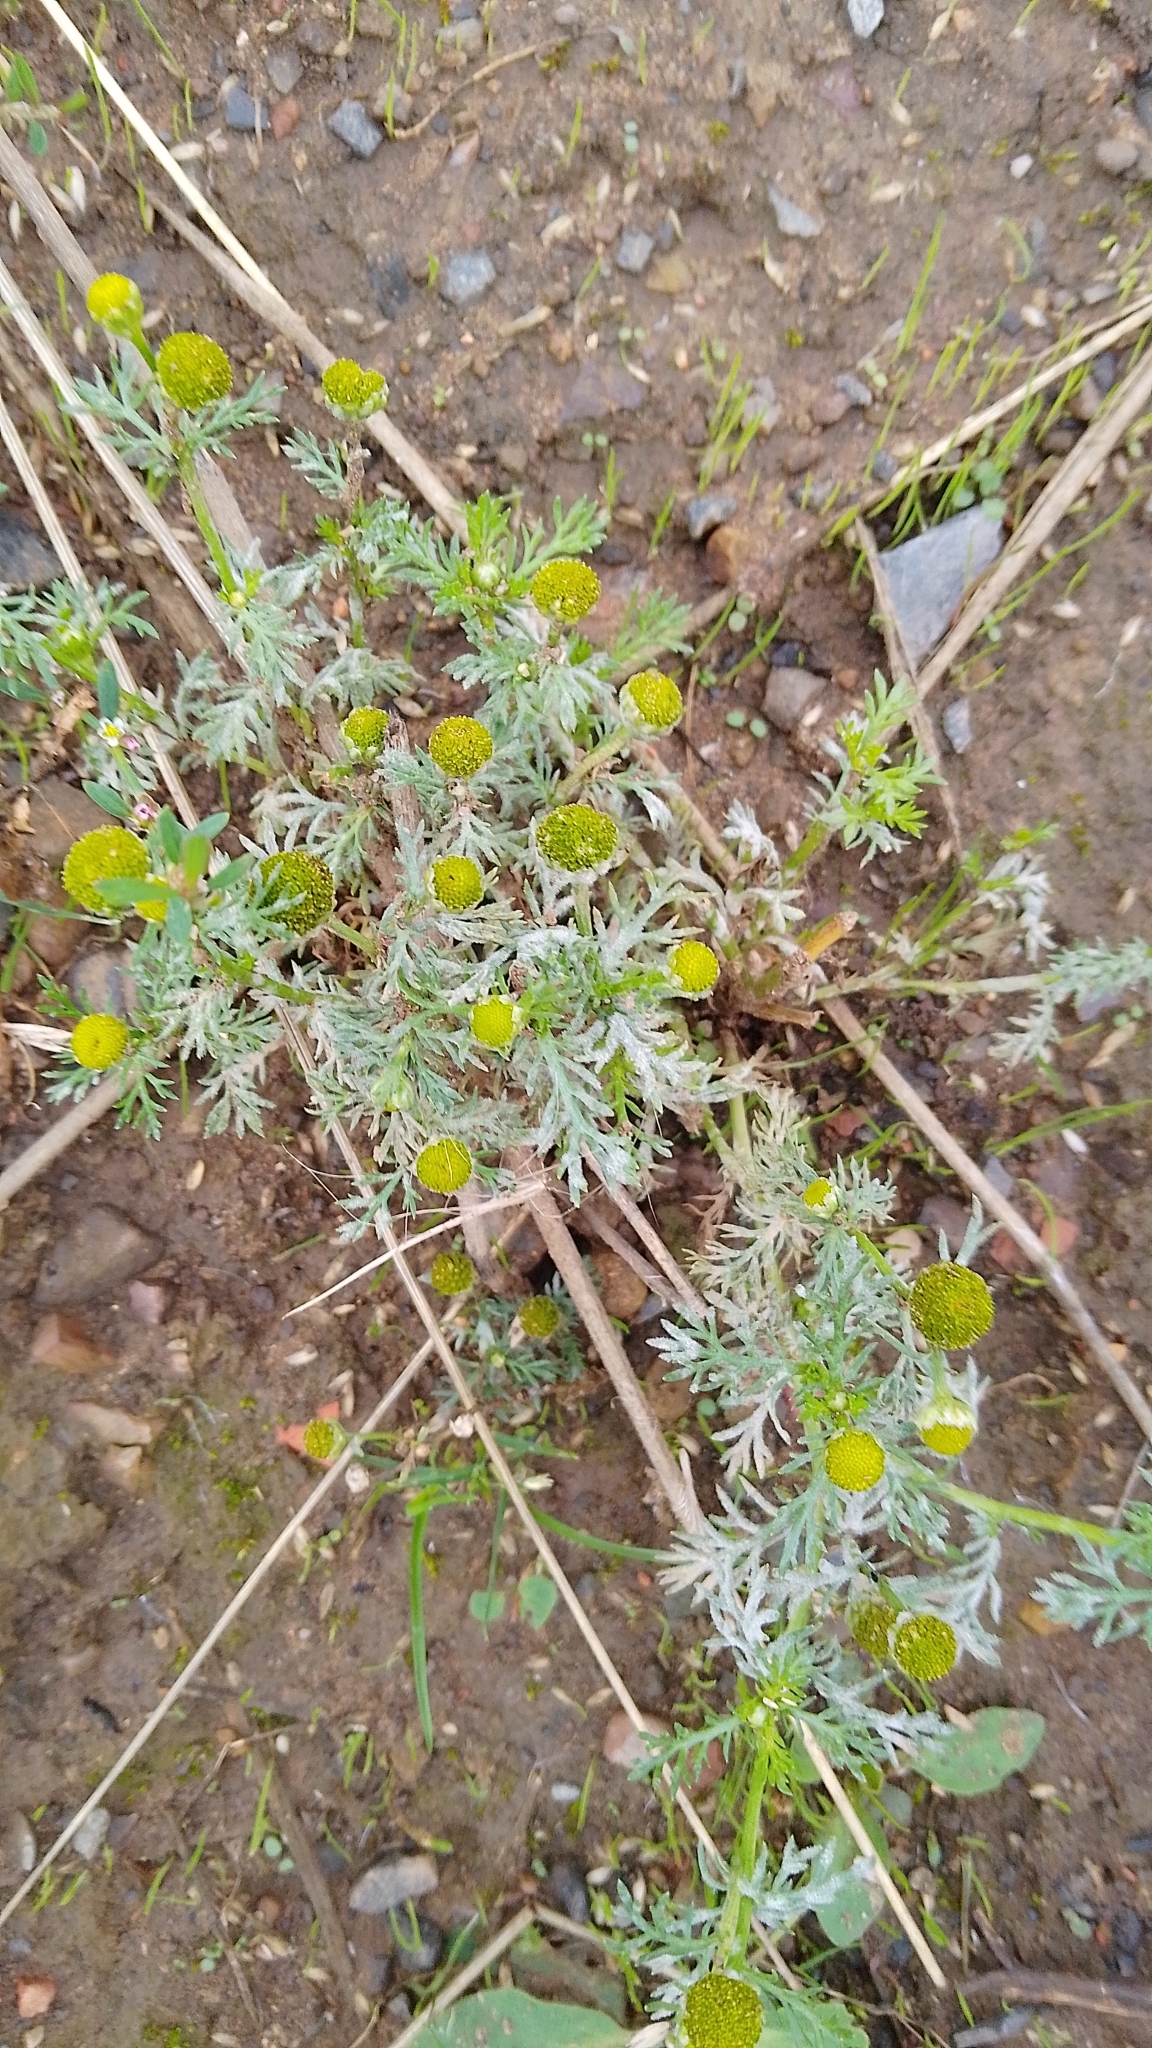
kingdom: Plantae
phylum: Tracheophyta
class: Magnoliopsida
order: Asterales
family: Asteraceae
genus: Matricaria
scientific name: Matricaria discoidea
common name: Disc mayweed
